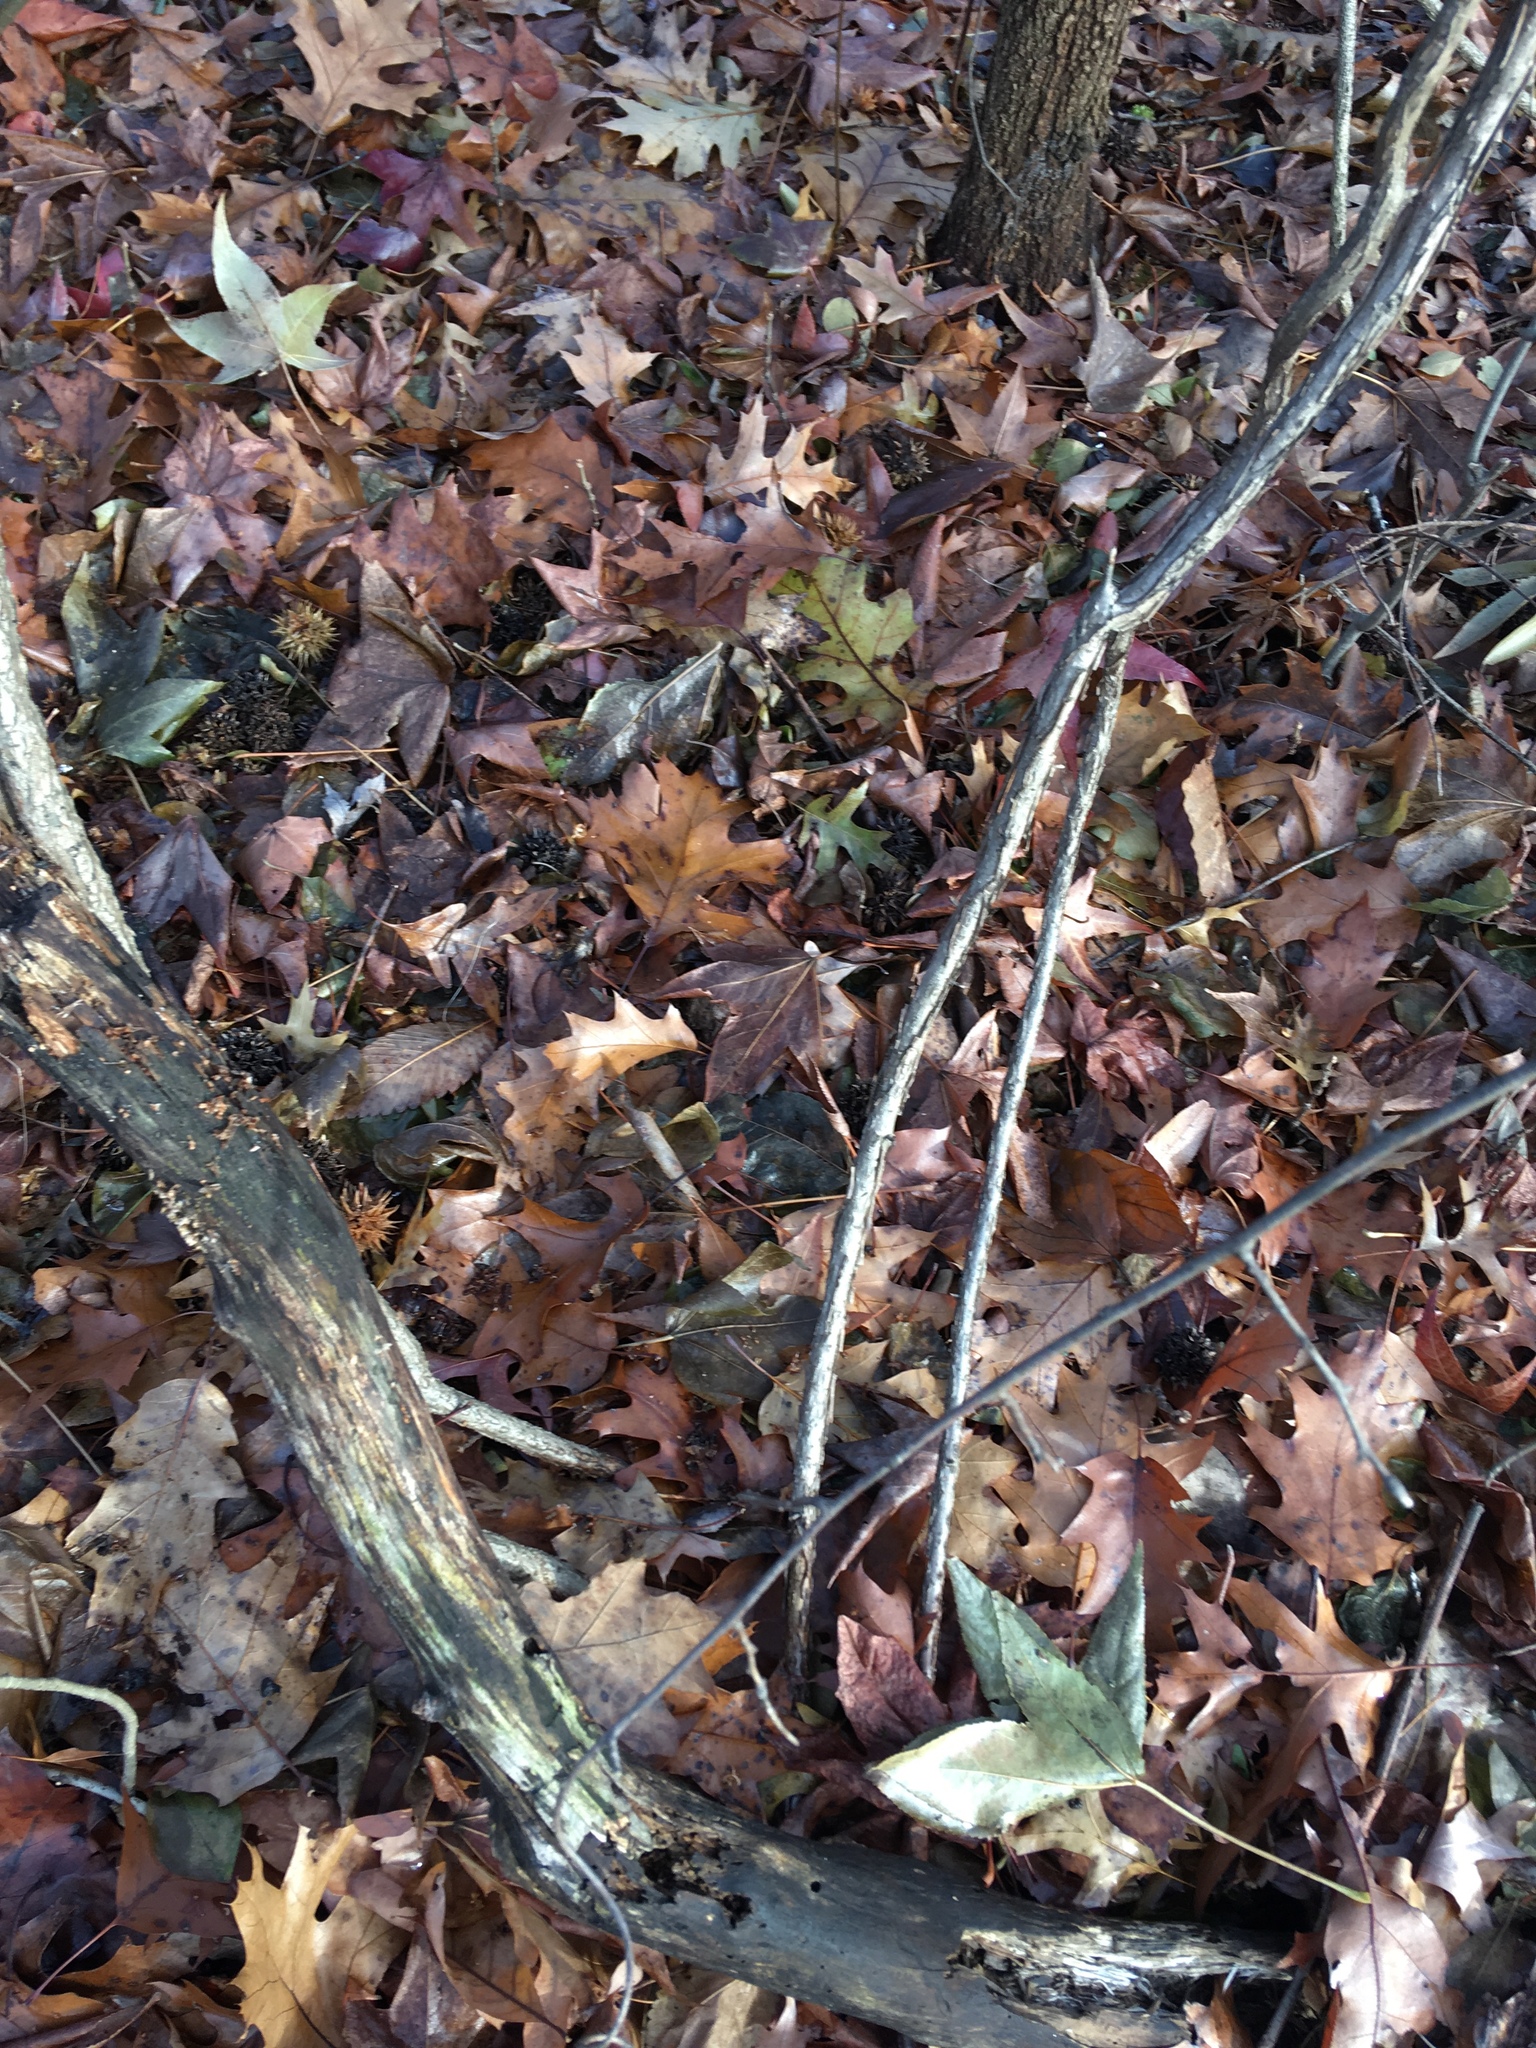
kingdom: Plantae
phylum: Tracheophyta
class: Magnoliopsida
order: Celastrales
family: Celastraceae
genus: Celastrus
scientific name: Celastrus orbiculatus
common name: Oriental bittersweet
